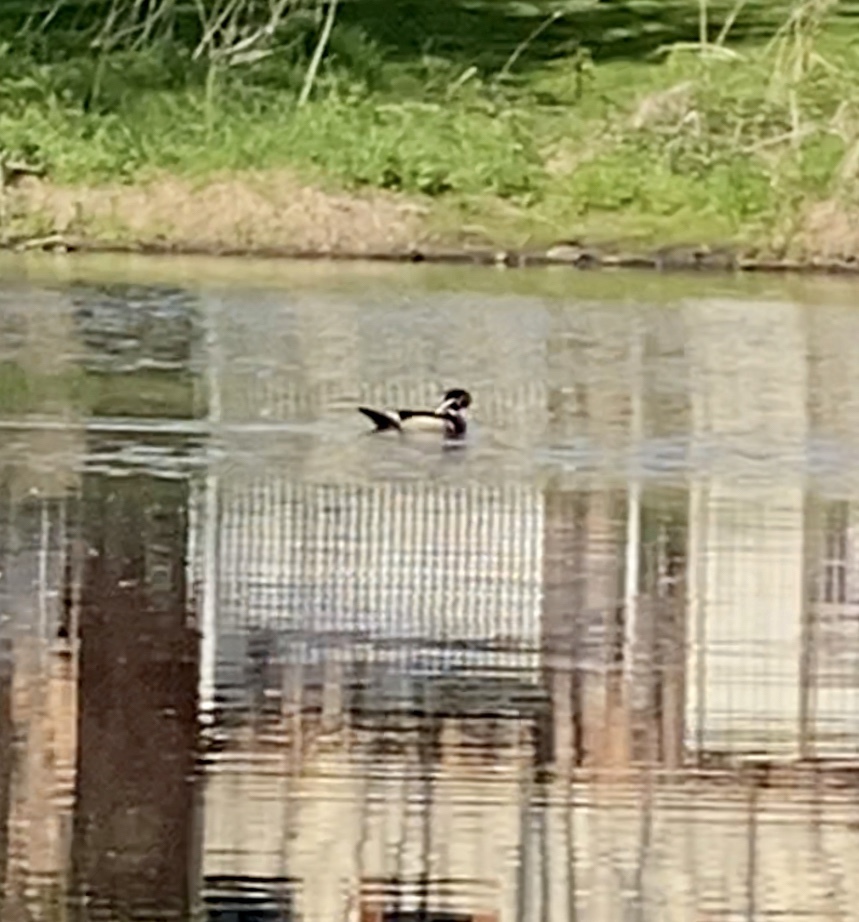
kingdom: Animalia
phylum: Chordata
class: Aves
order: Anseriformes
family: Anatidae
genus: Aix
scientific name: Aix sponsa
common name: Wood duck
